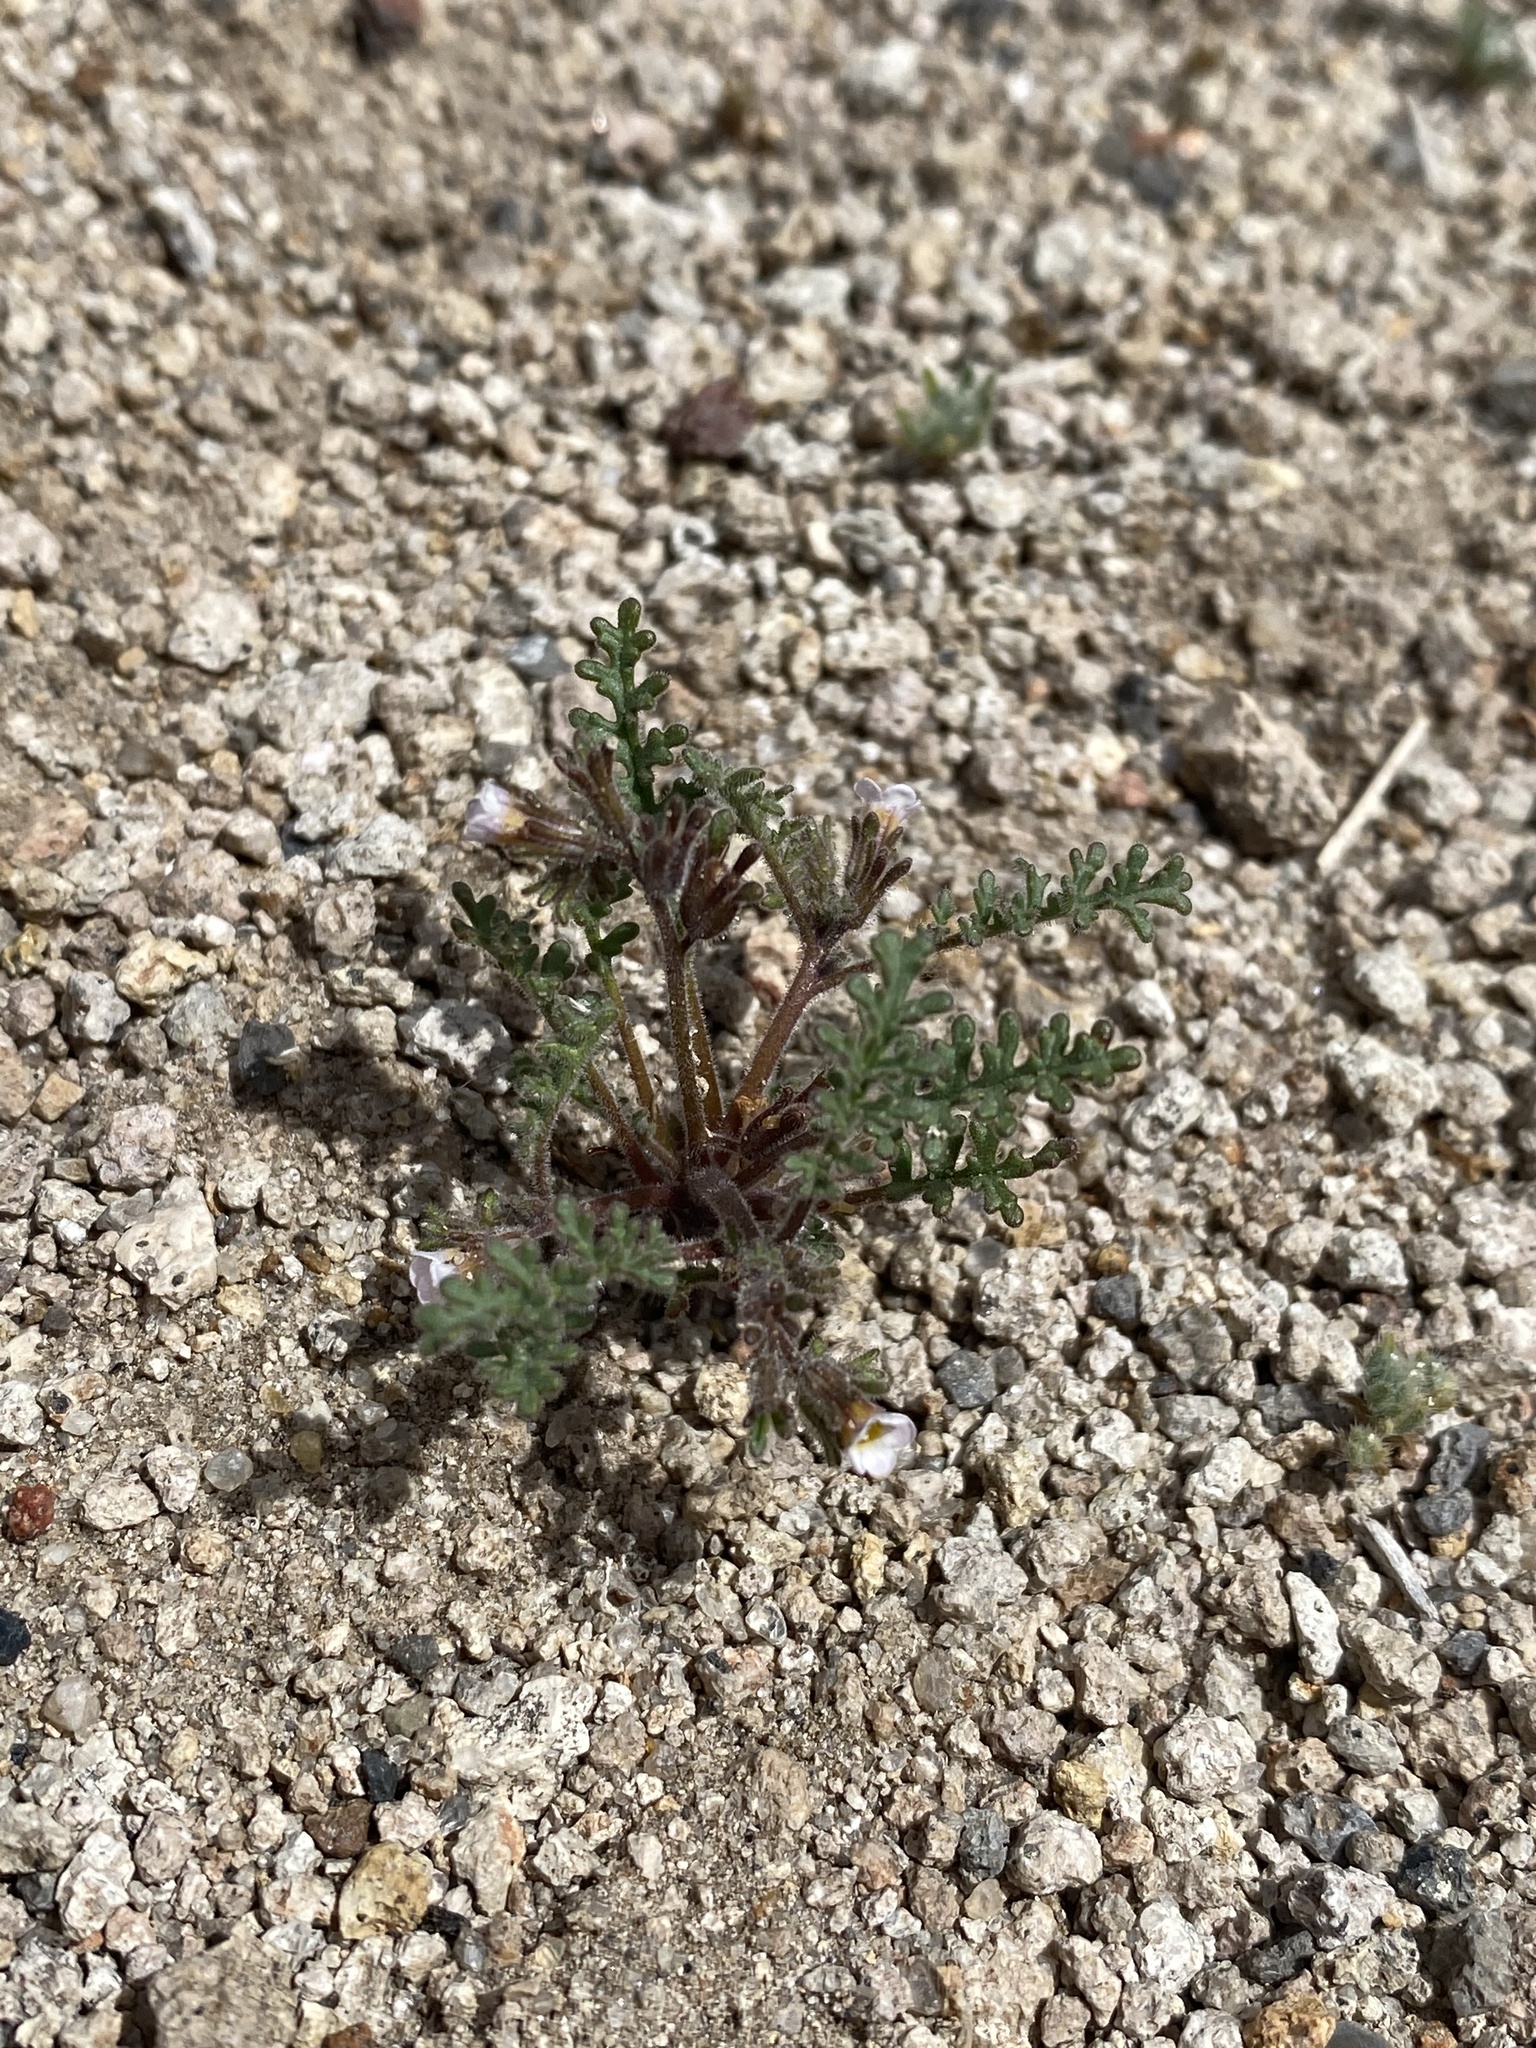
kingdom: Plantae
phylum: Tracheophyta
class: Magnoliopsida
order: Boraginales
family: Hydrophyllaceae
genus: Phacelia
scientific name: Phacelia ivesiana
